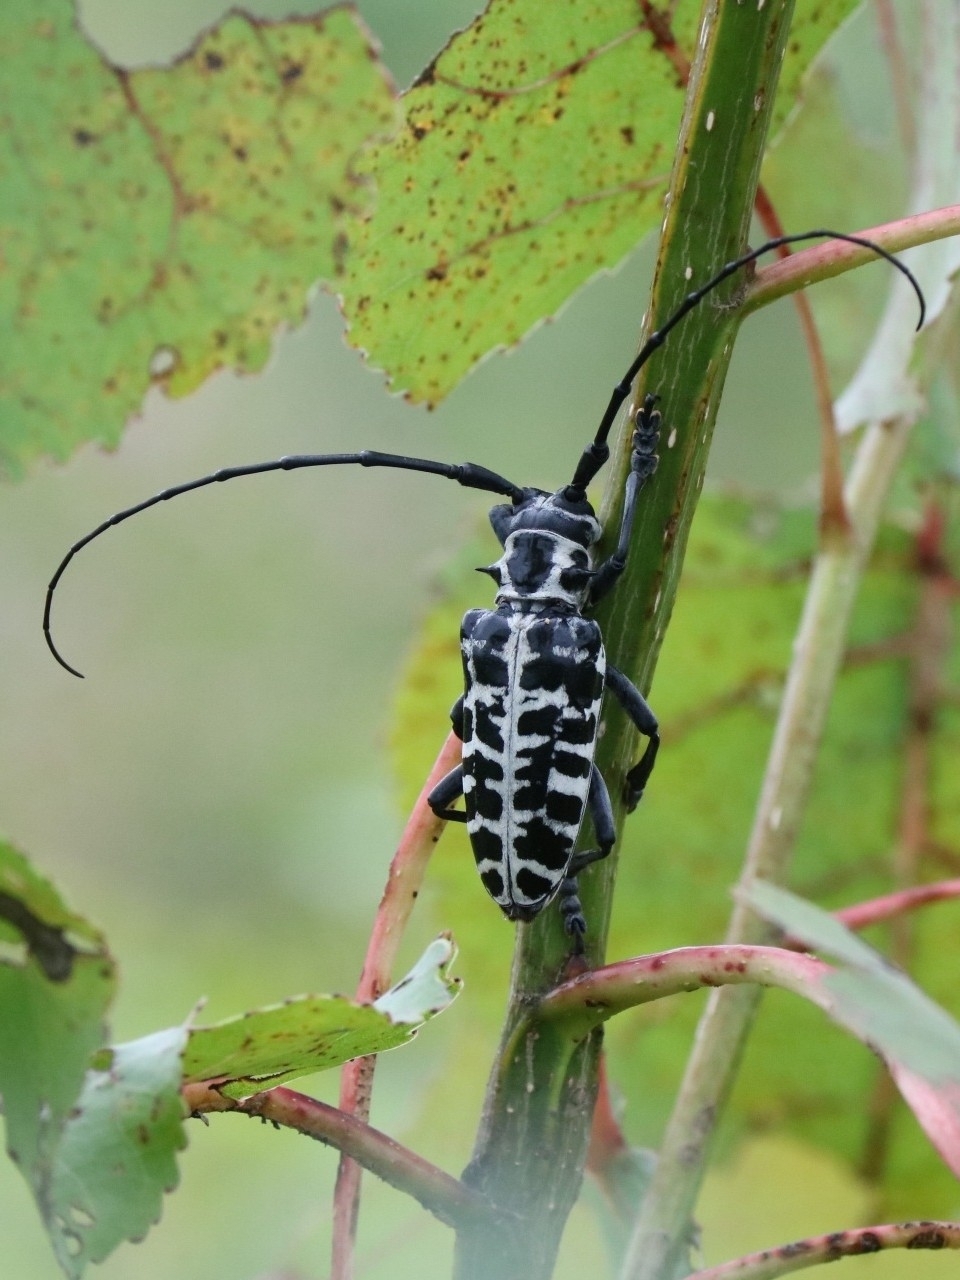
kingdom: Animalia
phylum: Arthropoda
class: Insecta
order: Coleoptera
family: Cerambycidae
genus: Plectrodera
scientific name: Plectrodera scalator
